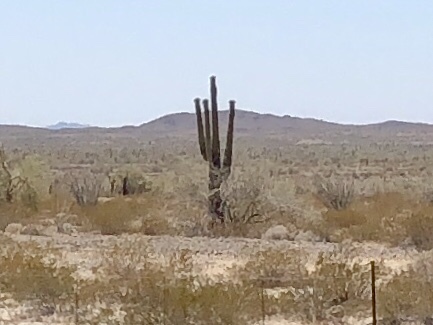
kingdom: Plantae
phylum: Tracheophyta
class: Magnoliopsida
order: Caryophyllales
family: Cactaceae
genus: Carnegiea
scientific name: Carnegiea gigantea
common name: Saguaro
